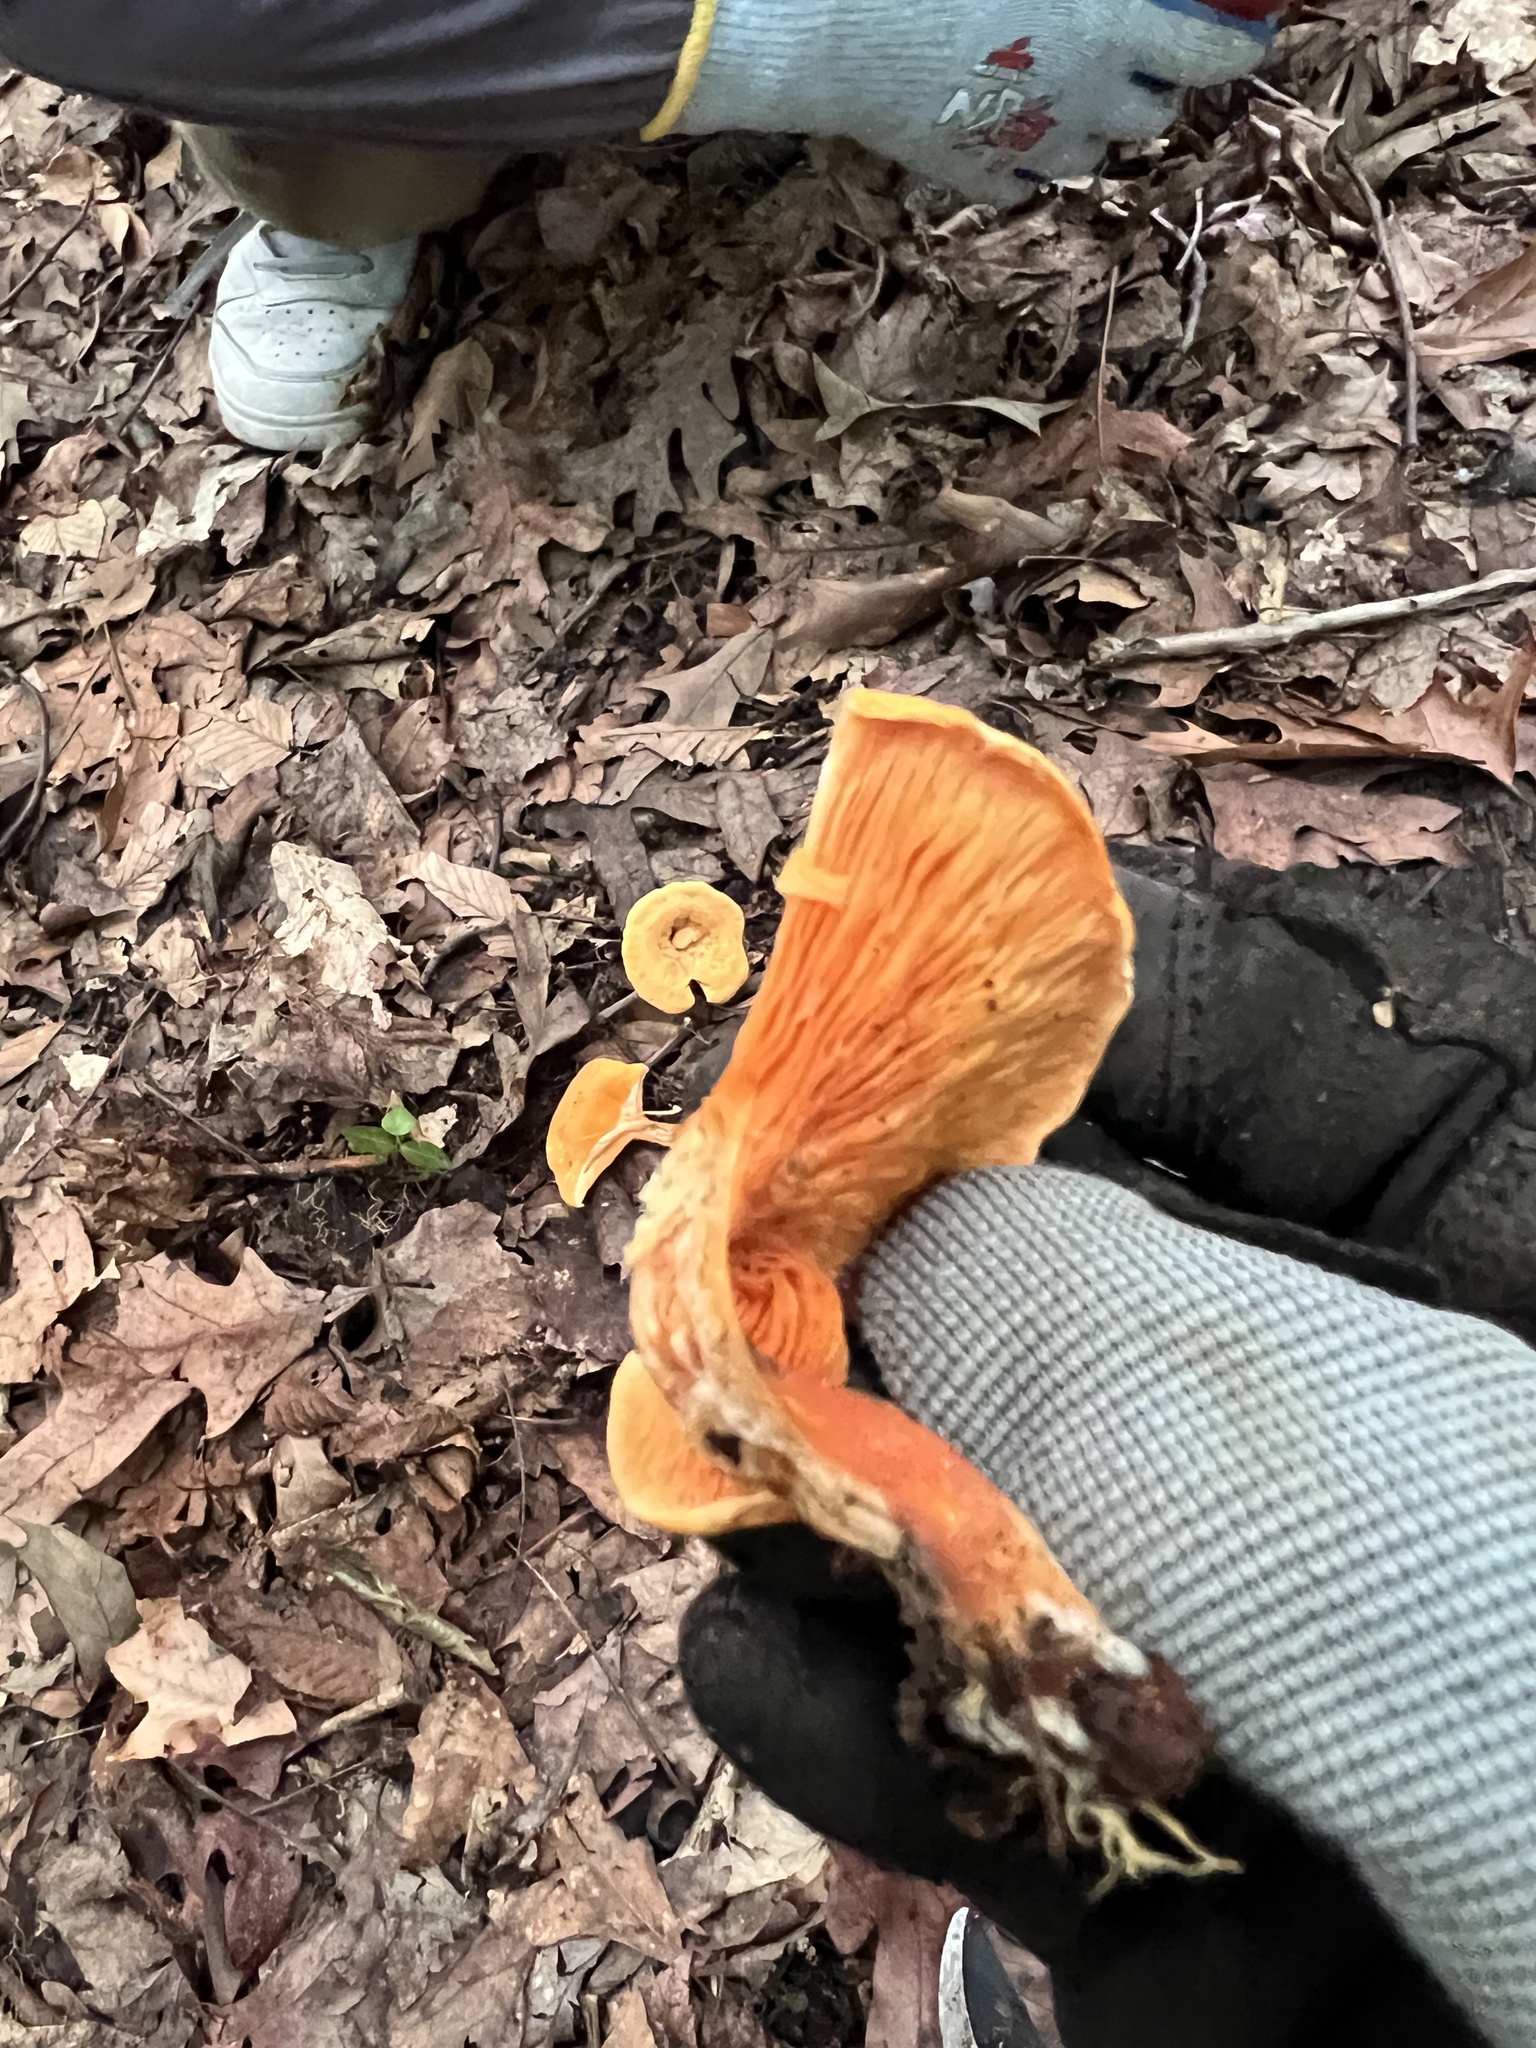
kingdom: Fungi
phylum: Basidiomycota
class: Agaricomycetes
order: Boletales
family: Hygrophoropsidaceae
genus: Hygrophoropsis
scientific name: Hygrophoropsis aurantiaca
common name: False chanterelle
